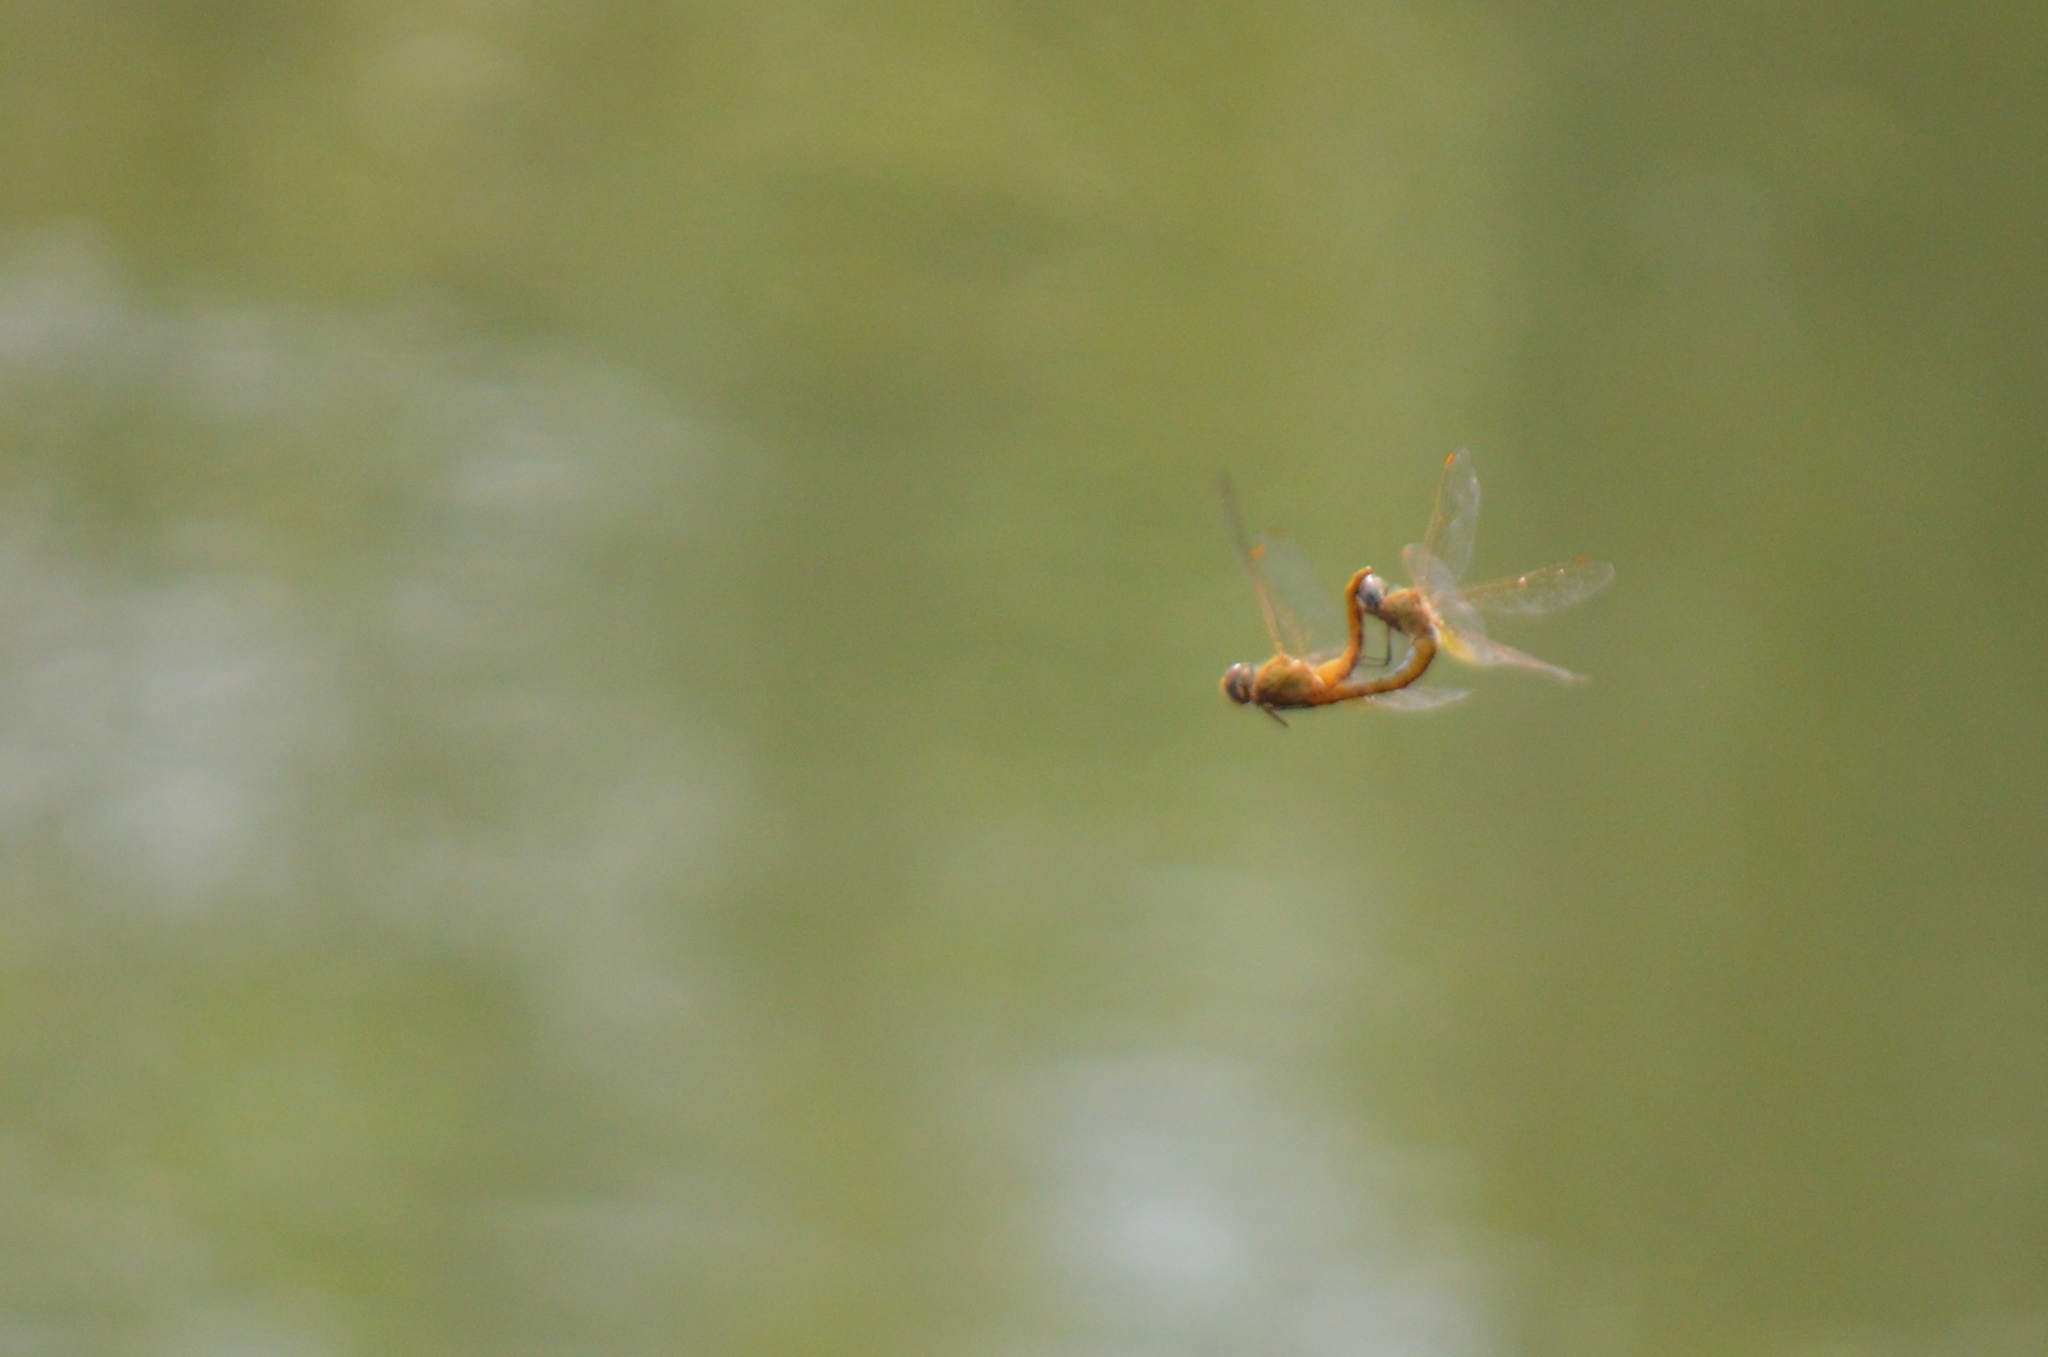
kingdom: Animalia
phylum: Arthropoda
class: Insecta
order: Odonata
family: Libellulidae
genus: Pantala
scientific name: Pantala flavescens
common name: Wandering glider
